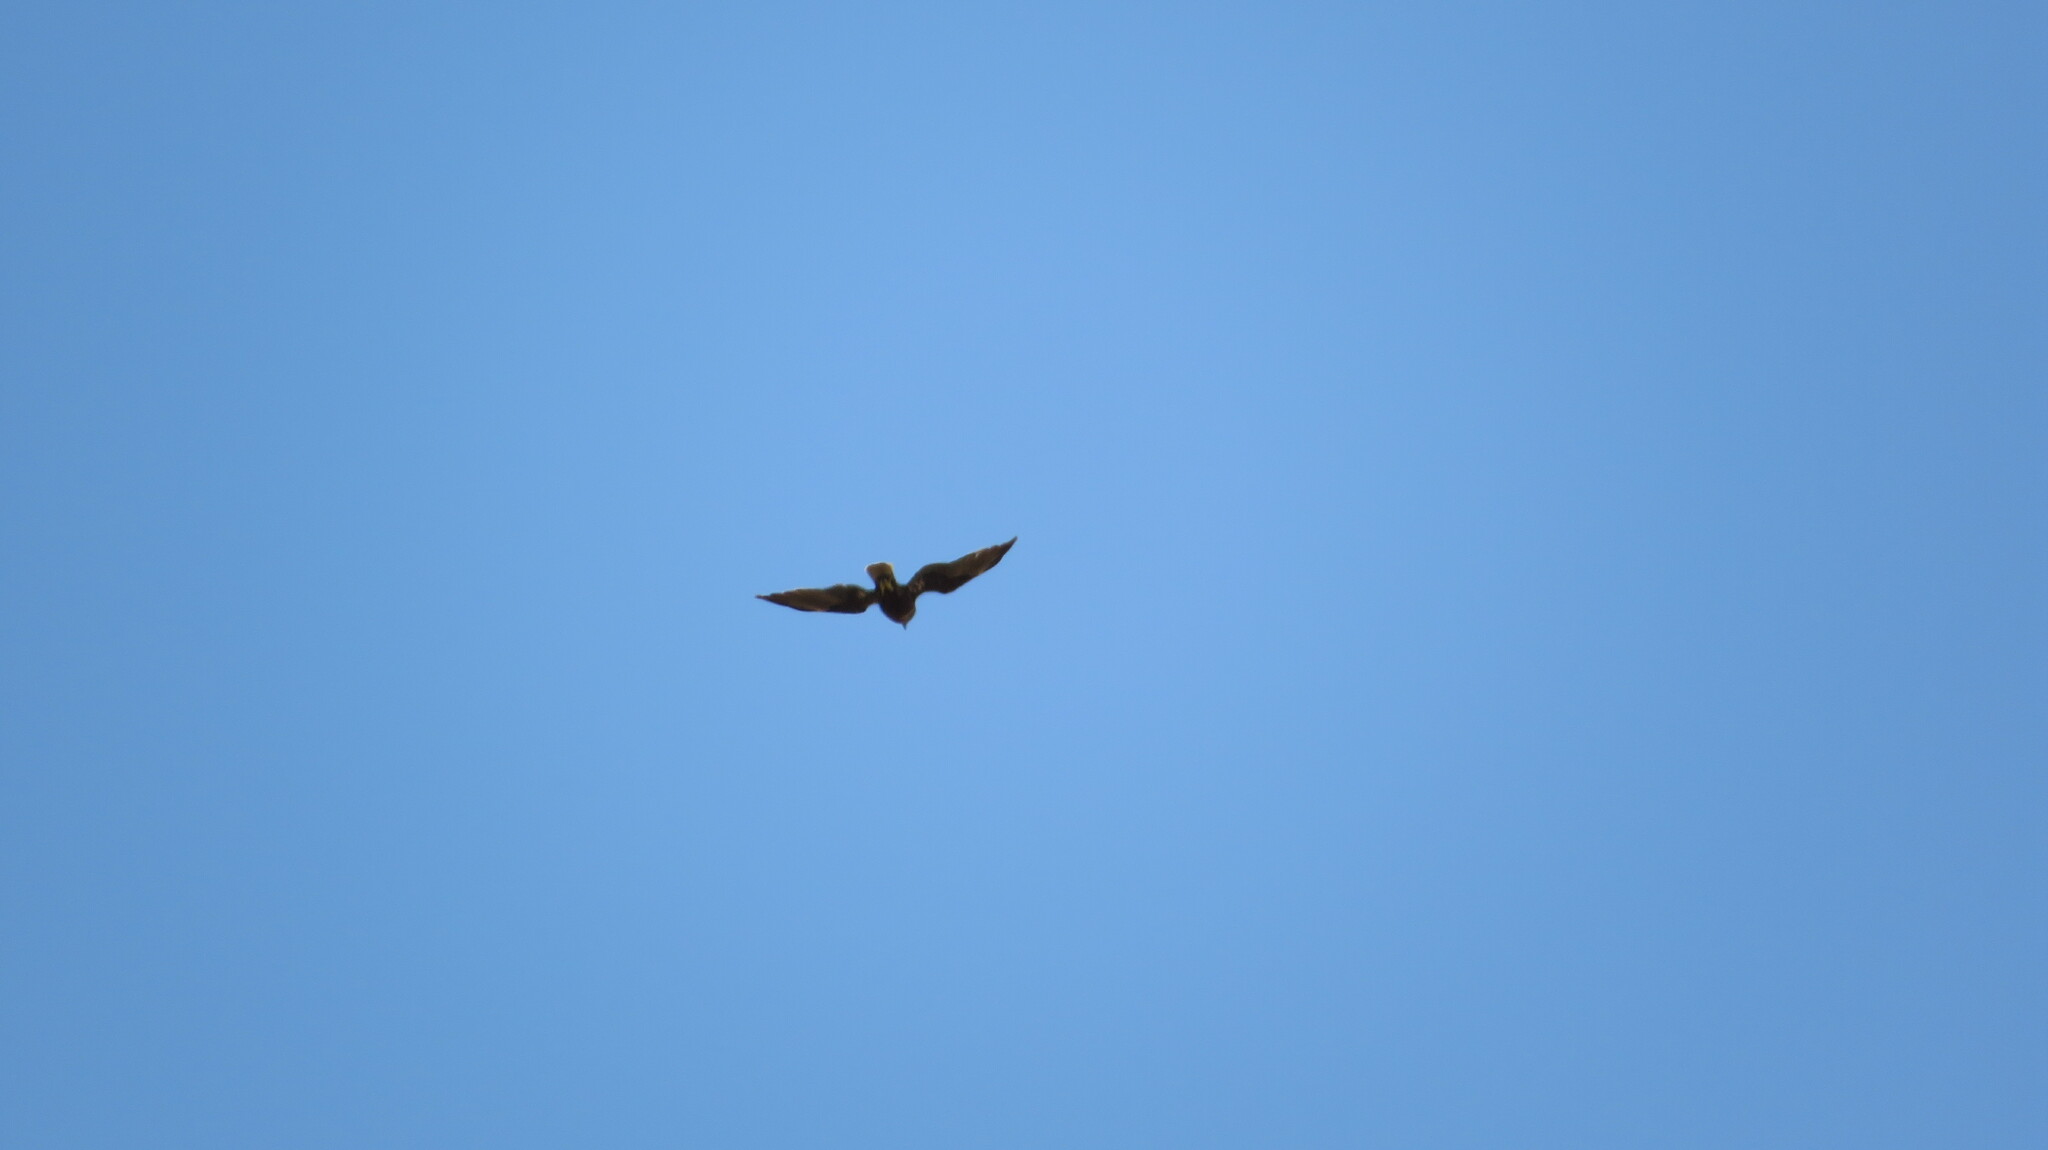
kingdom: Animalia
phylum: Chordata
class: Aves
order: Accipitriformes
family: Accipitridae
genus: Circus
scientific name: Circus aeruginosus
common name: Western marsh harrier
